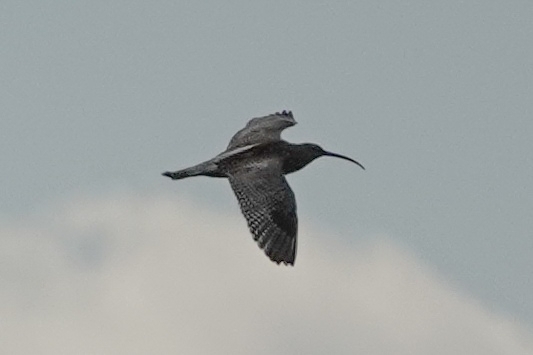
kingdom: Animalia
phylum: Chordata
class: Aves
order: Charadriiformes
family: Scolopacidae
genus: Numenius
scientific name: Numenius arquata
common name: Eurasian curlew
